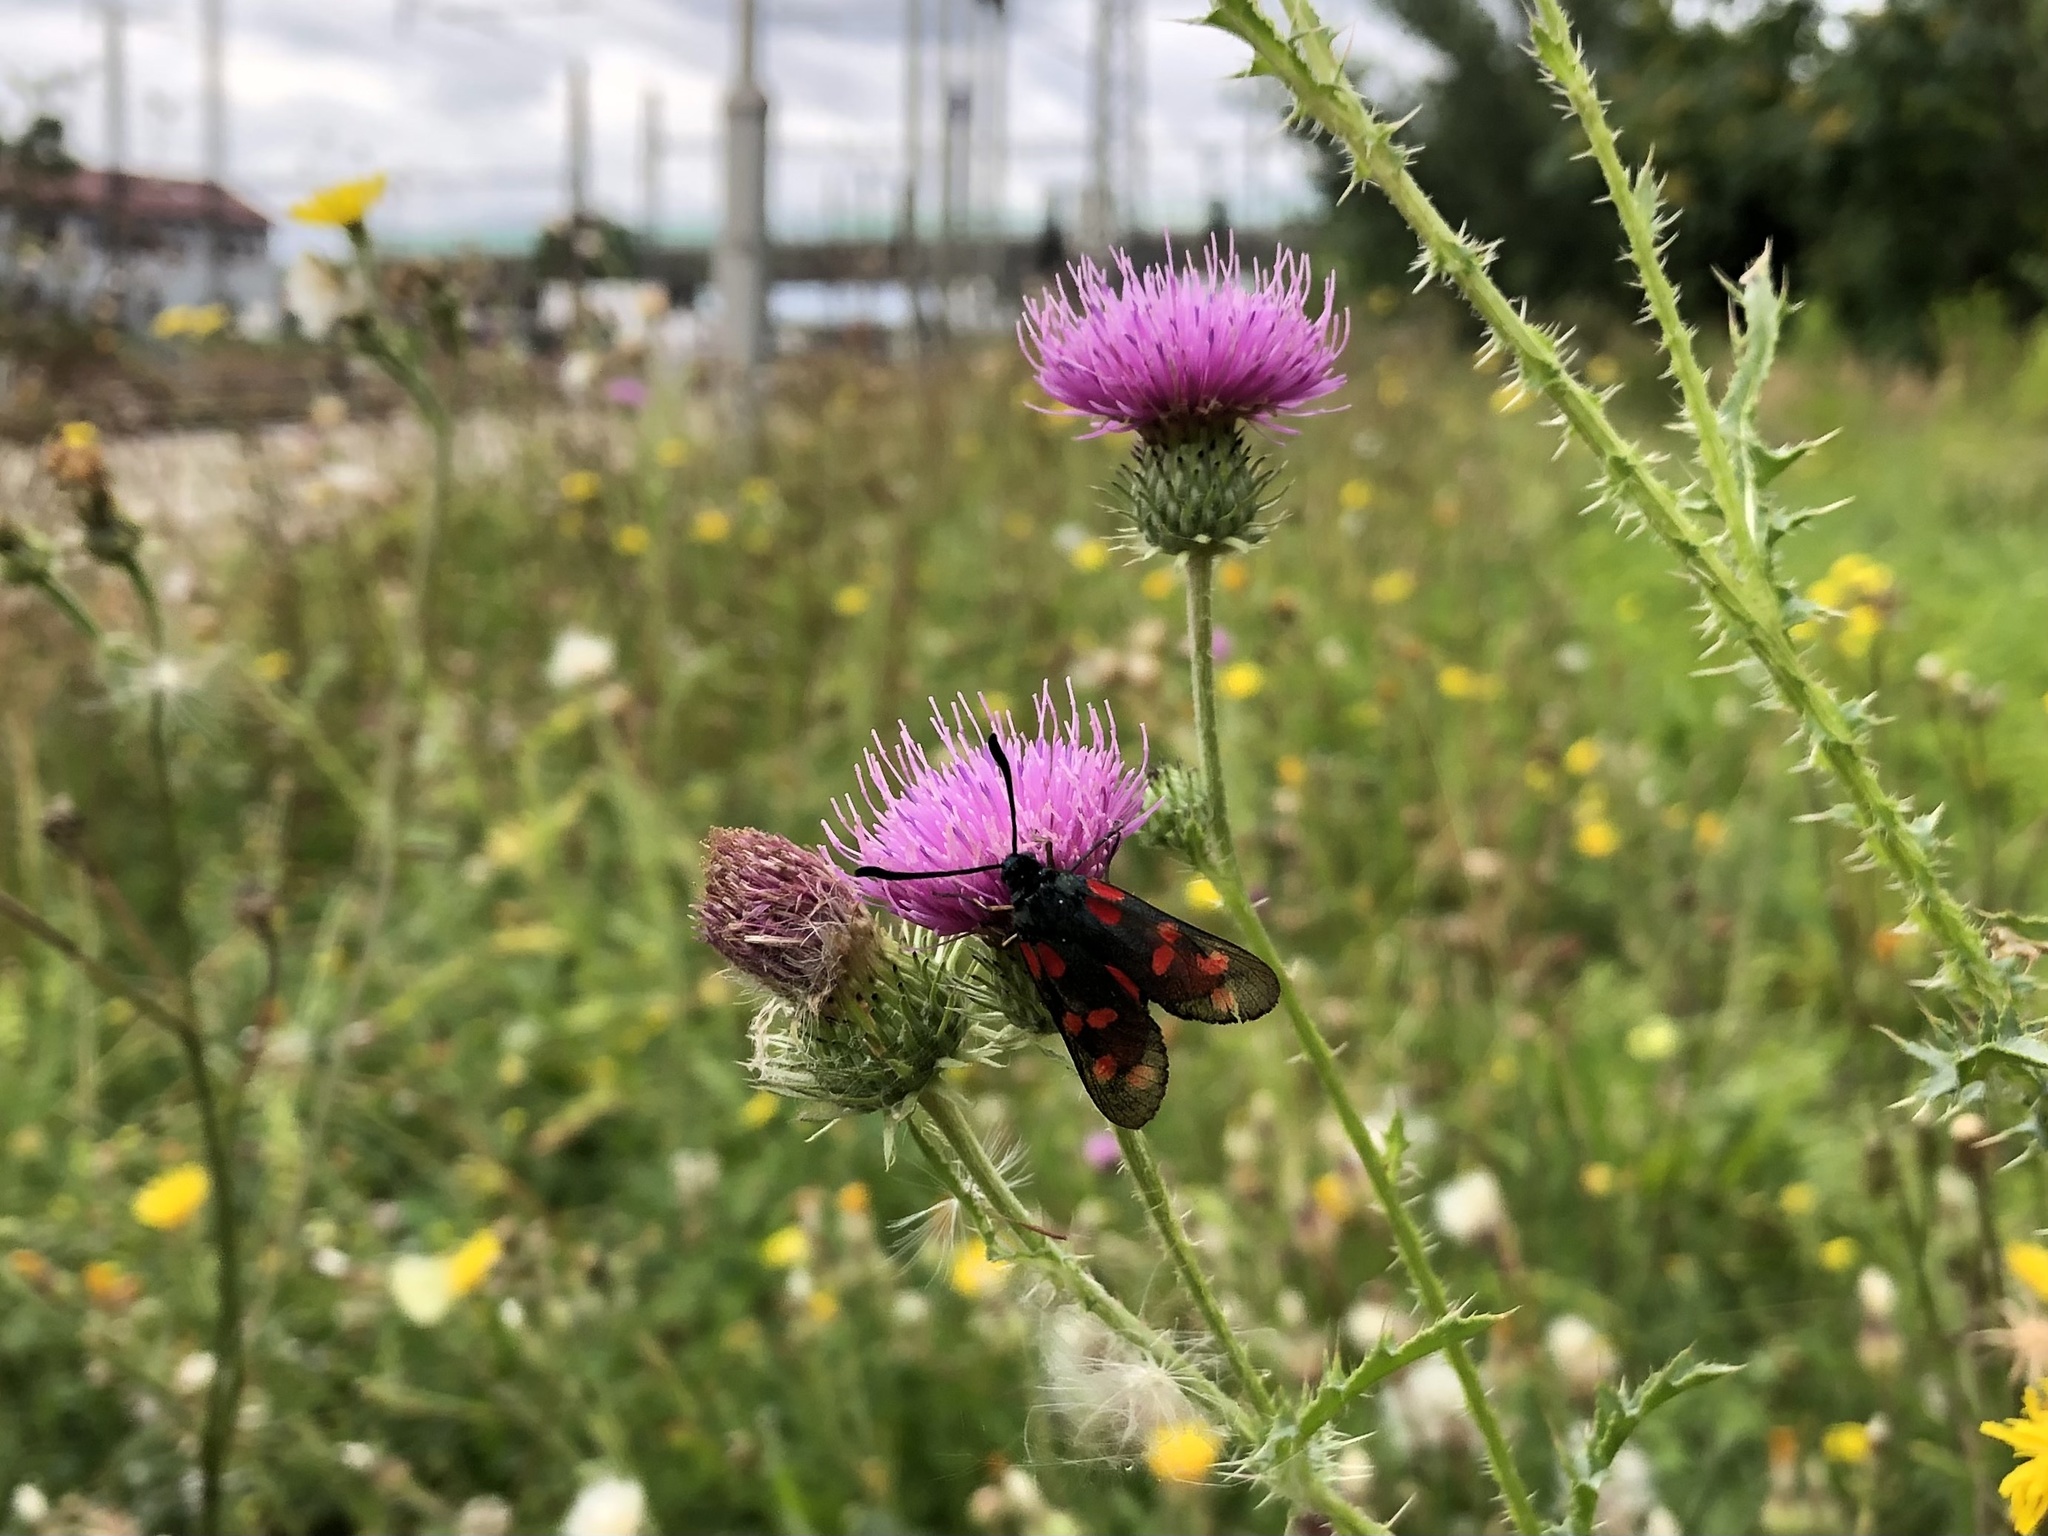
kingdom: Animalia
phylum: Arthropoda
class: Insecta
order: Lepidoptera
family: Zygaenidae
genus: Zygaena
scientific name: Zygaena filipendulae
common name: Six-spot burnet
